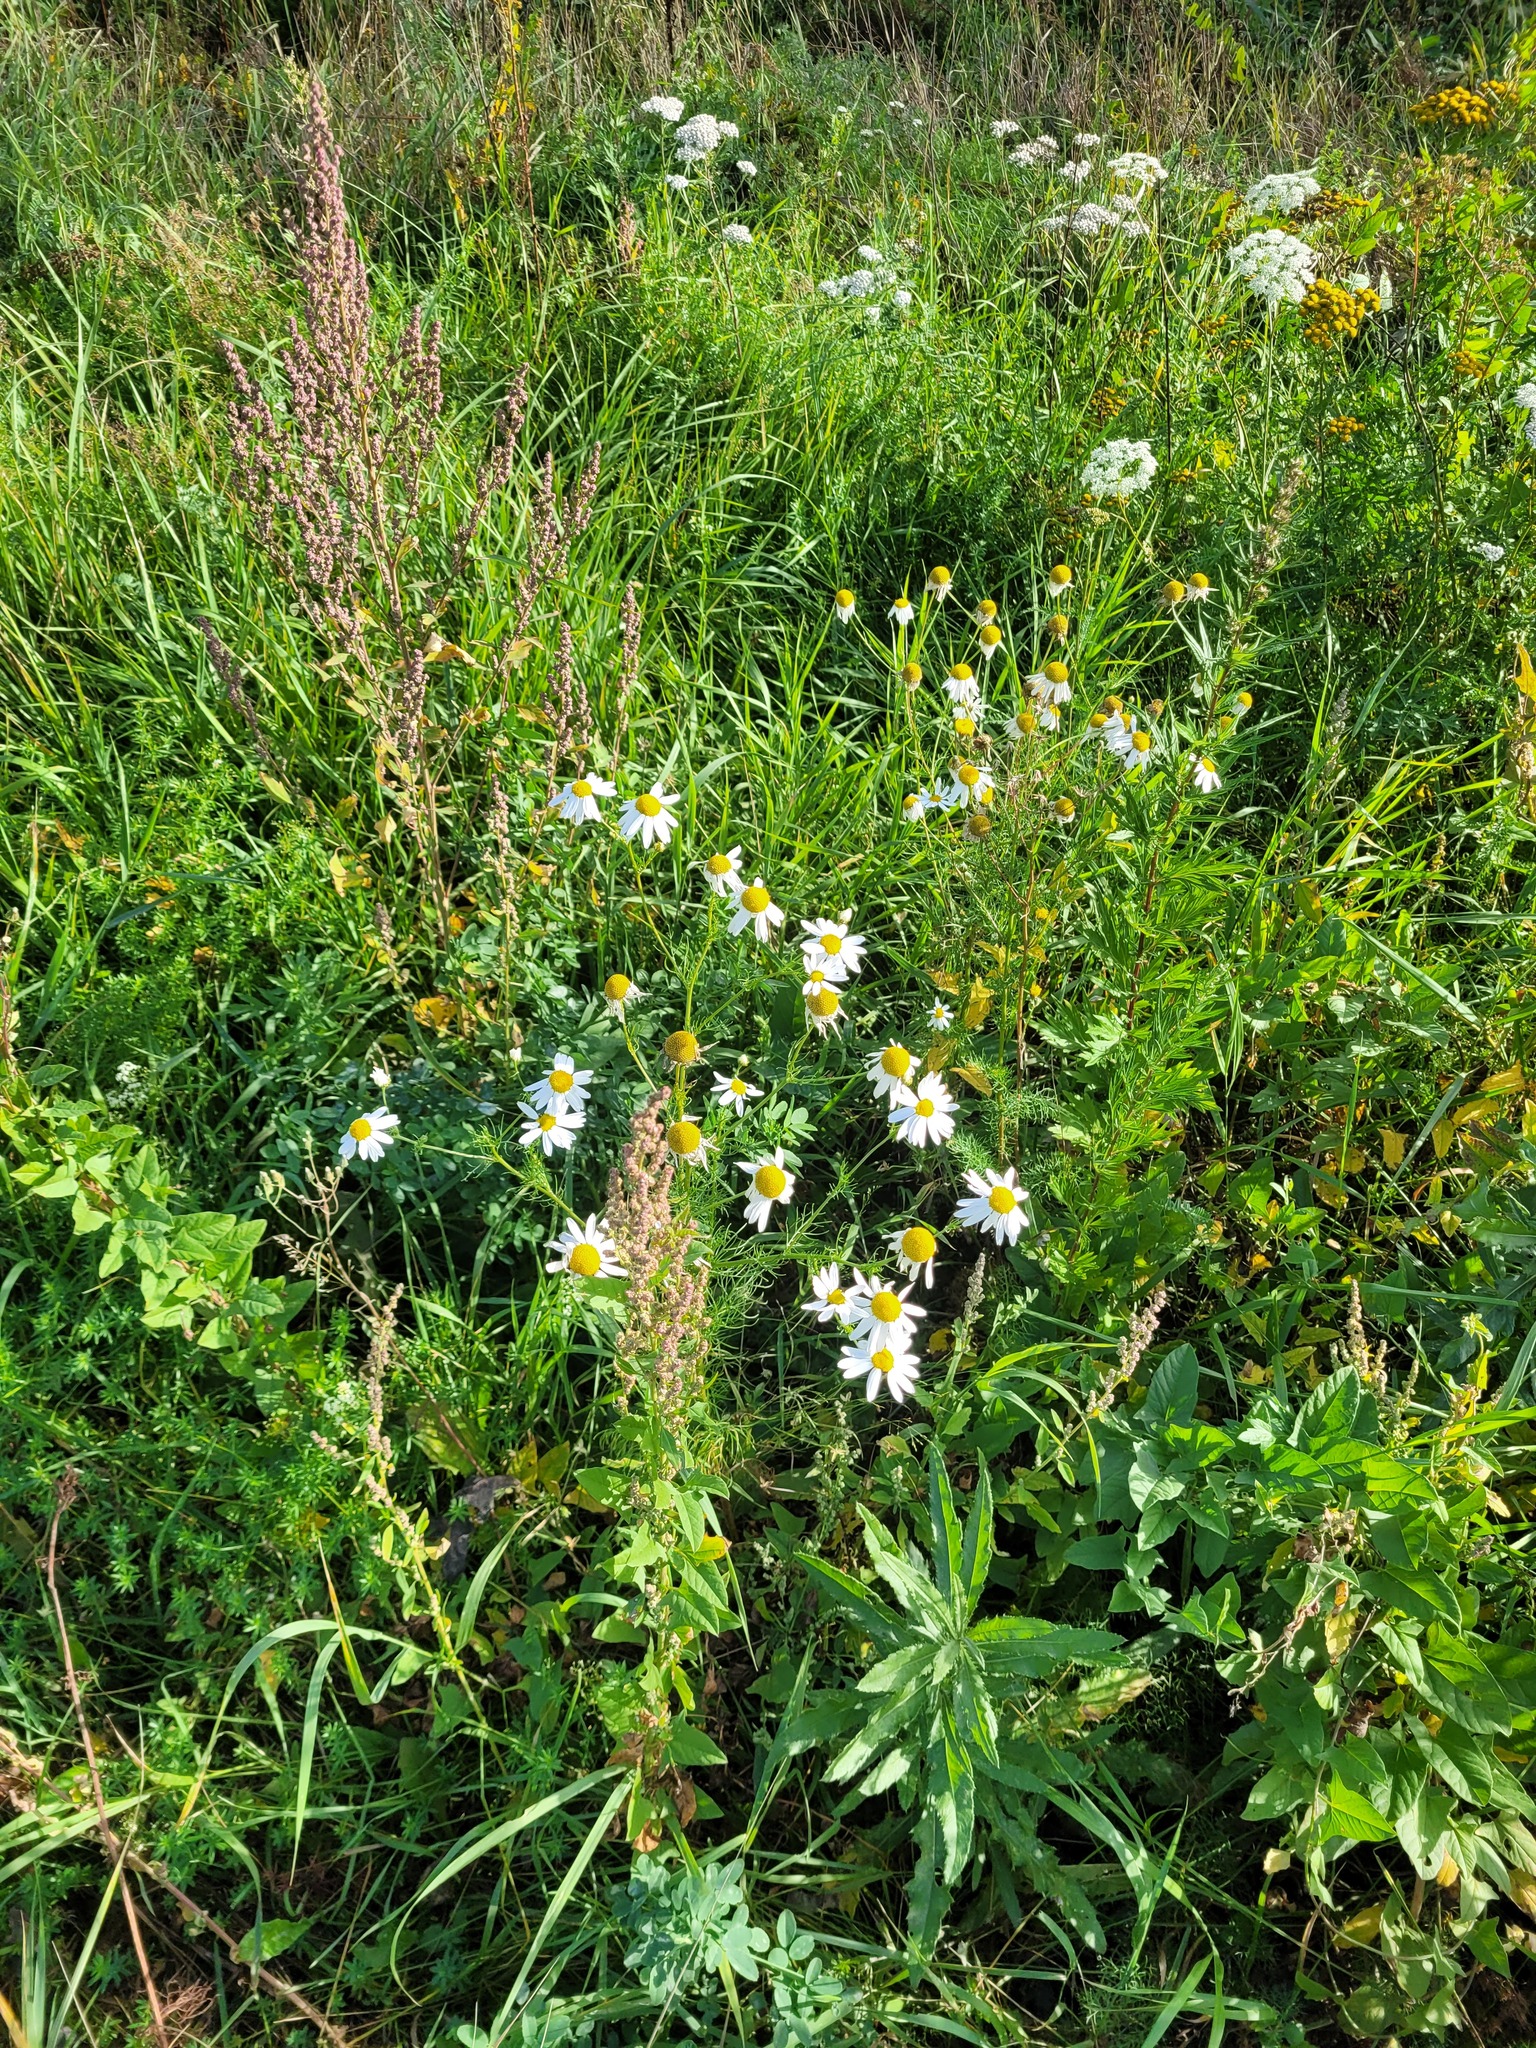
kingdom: Plantae
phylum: Tracheophyta
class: Magnoliopsida
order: Asterales
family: Asteraceae
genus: Tripleurospermum
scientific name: Tripleurospermum inodorum
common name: Scentless mayweed
